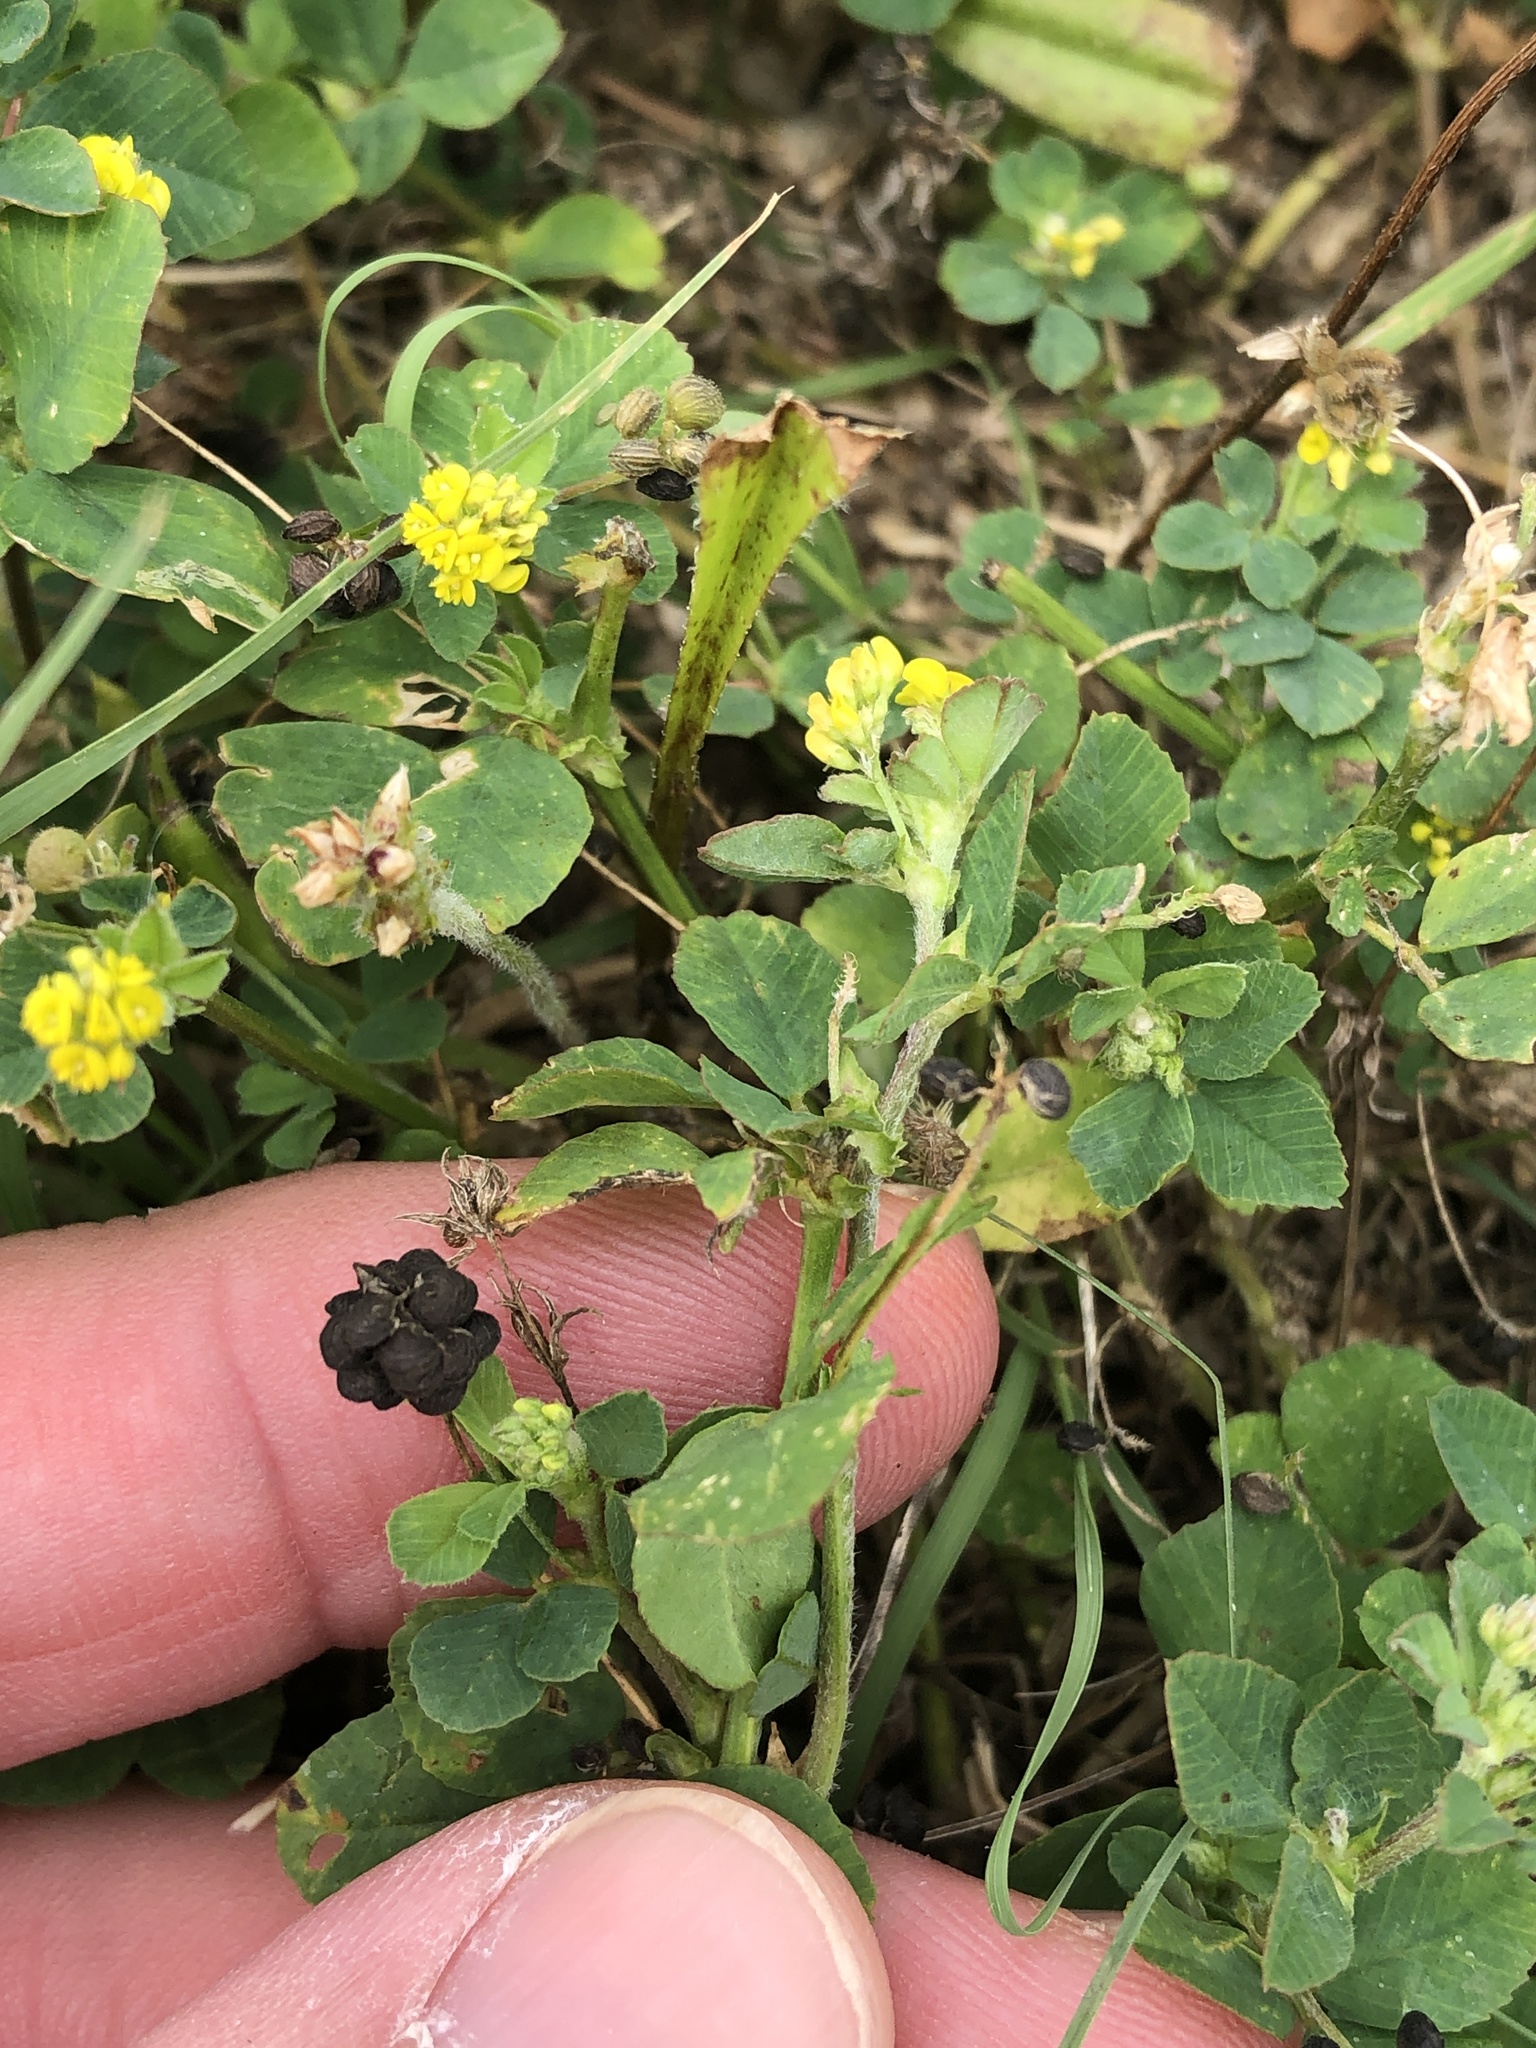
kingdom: Plantae
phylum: Tracheophyta
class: Magnoliopsida
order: Fabales
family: Fabaceae
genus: Medicago
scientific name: Medicago lupulina
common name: Black medick
